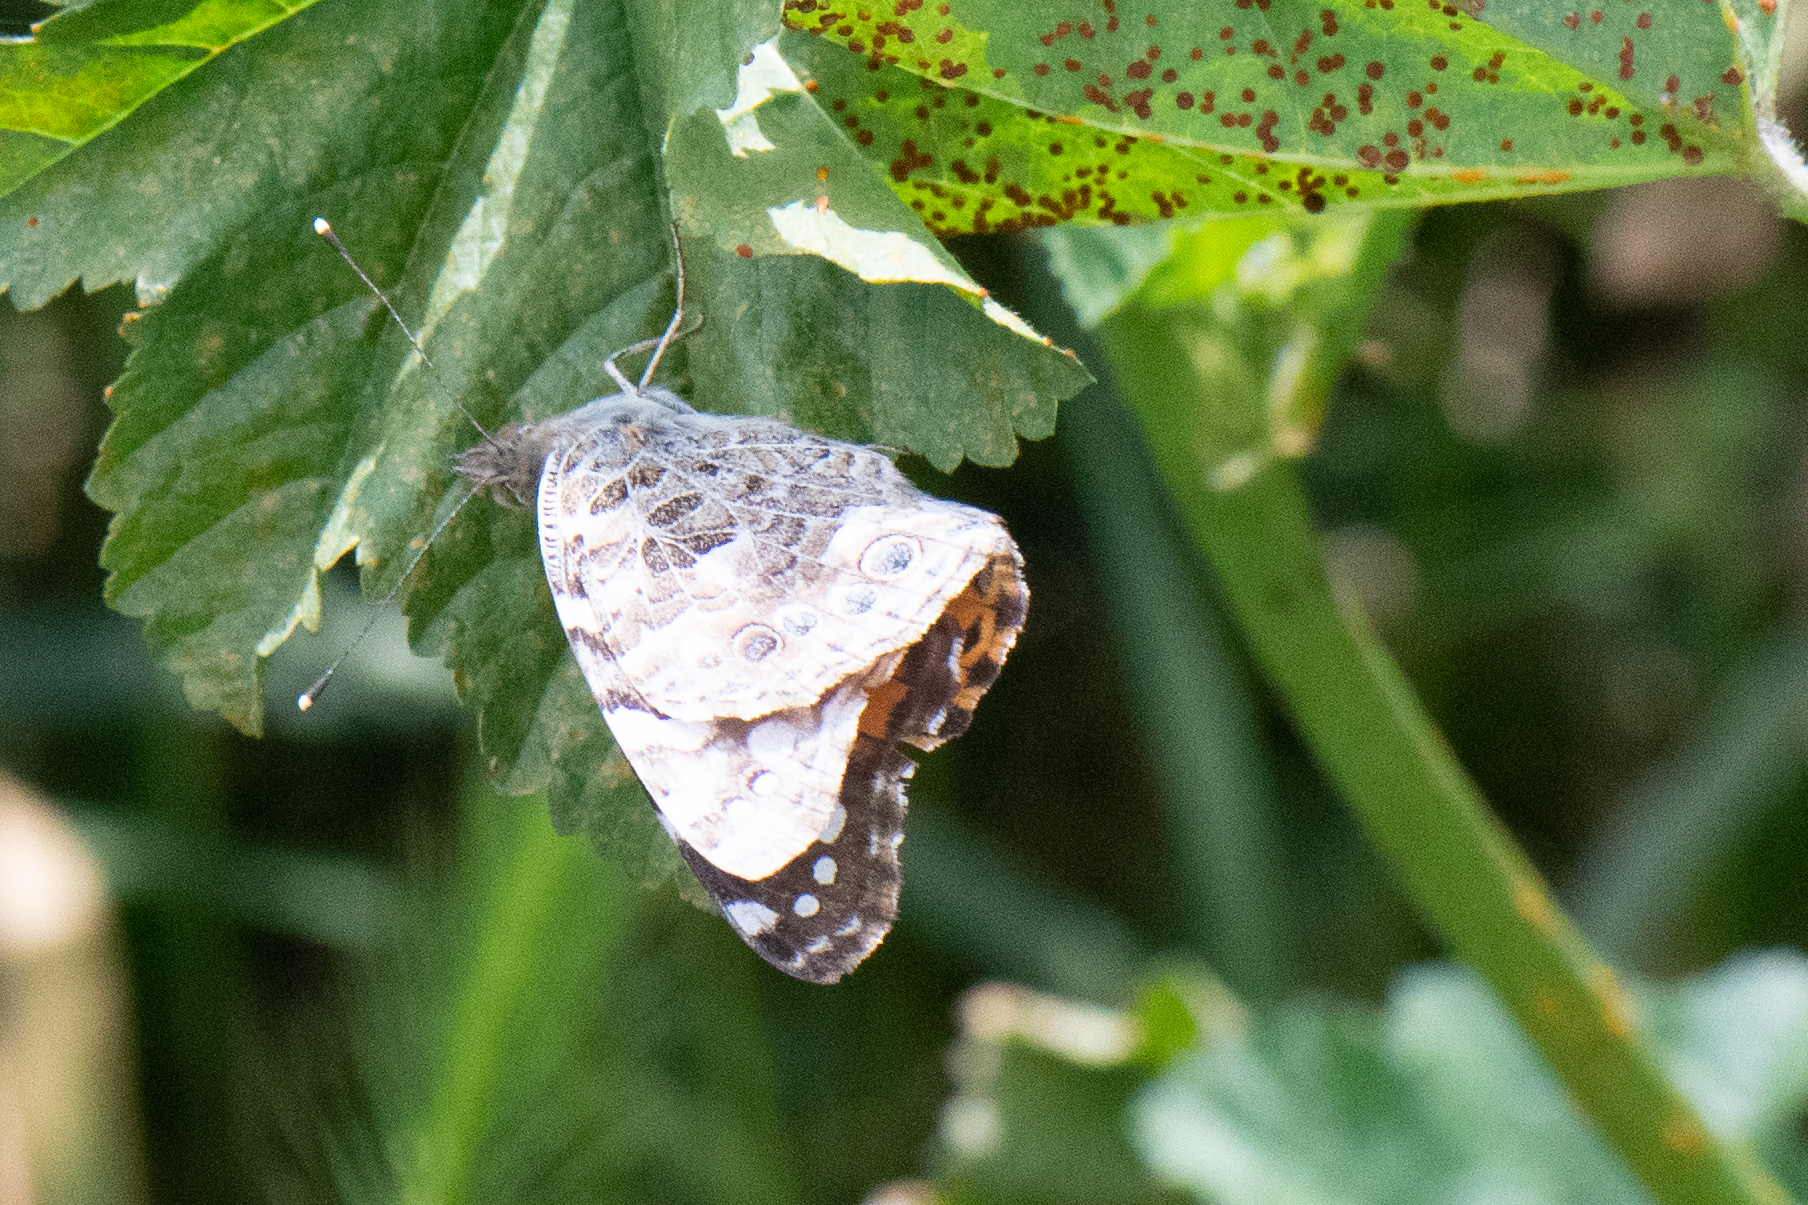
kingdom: Animalia
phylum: Arthropoda
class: Insecta
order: Lepidoptera
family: Nymphalidae
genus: Vanessa
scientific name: Vanessa cardui
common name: Painted lady
